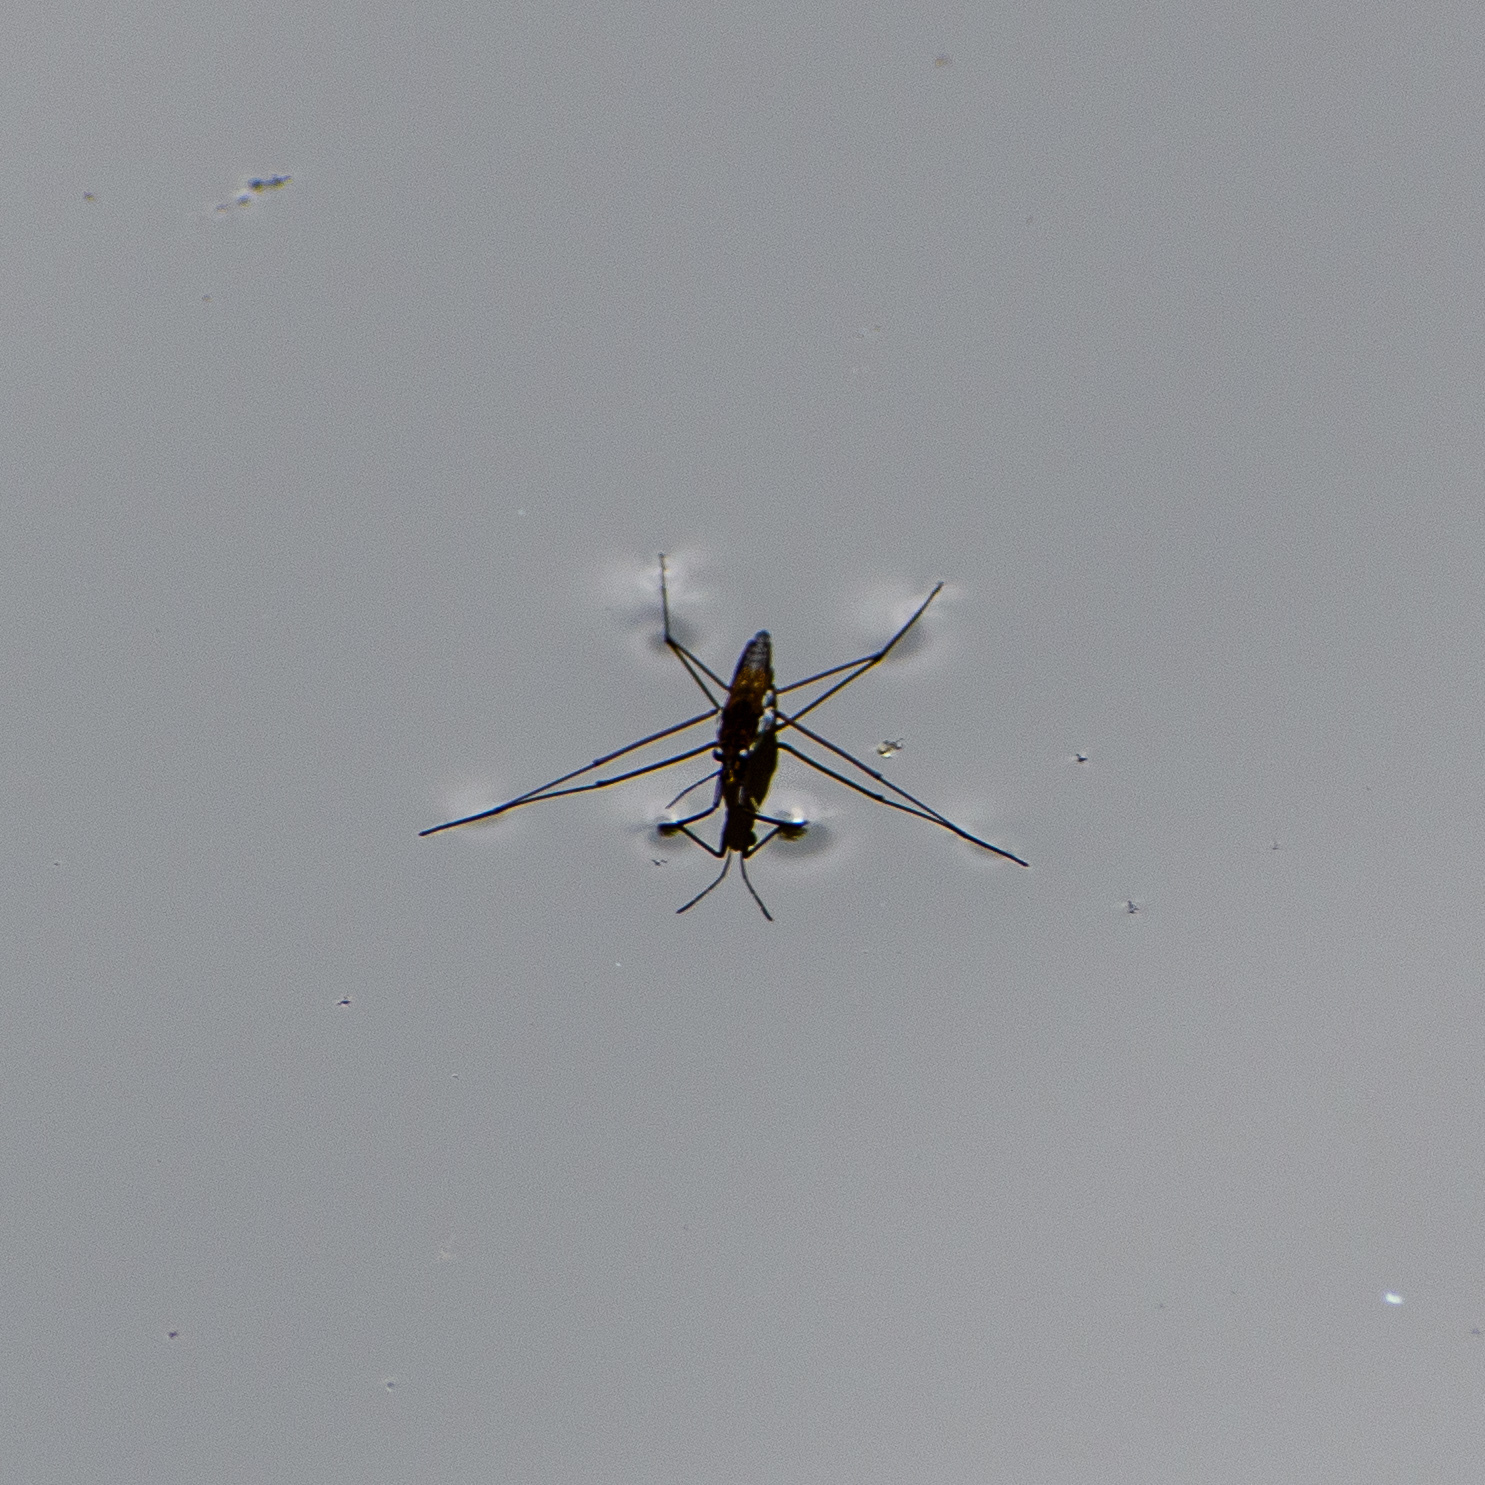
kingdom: Animalia
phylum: Arthropoda
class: Insecta
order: Hemiptera
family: Gerridae
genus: Gerris
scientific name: Gerris
